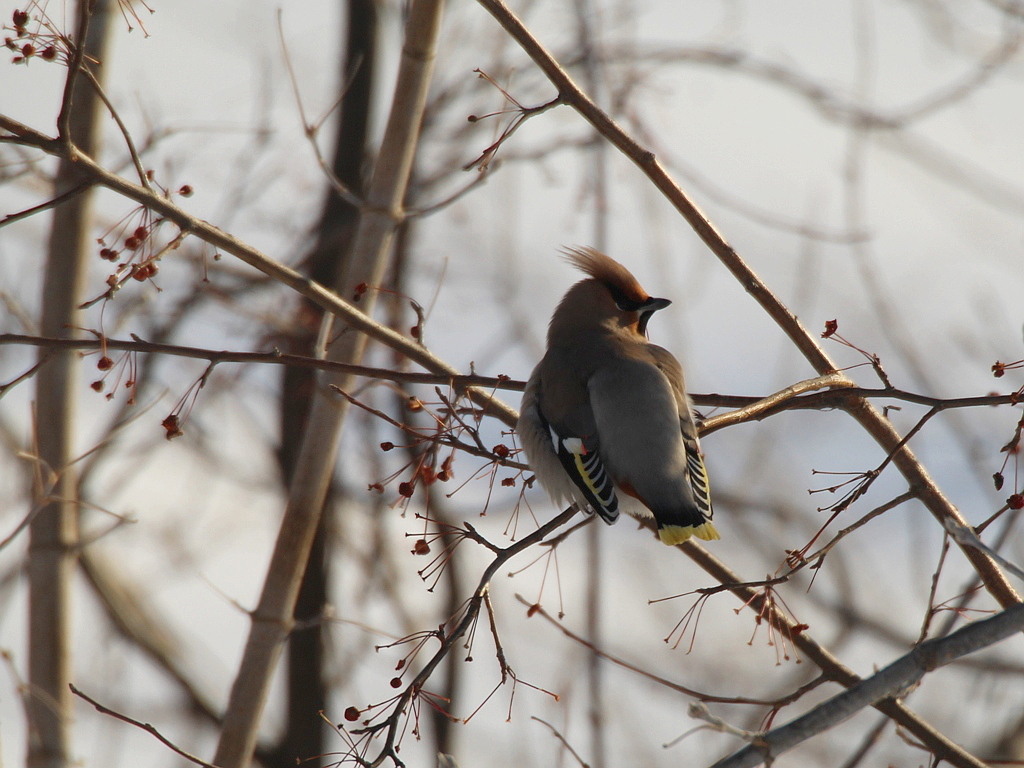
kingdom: Animalia
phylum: Chordata
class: Aves
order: Passeriformes
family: Bombycillidae
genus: Bombycilla
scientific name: Bombycilla garrulus
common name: Bohemian waxwing
